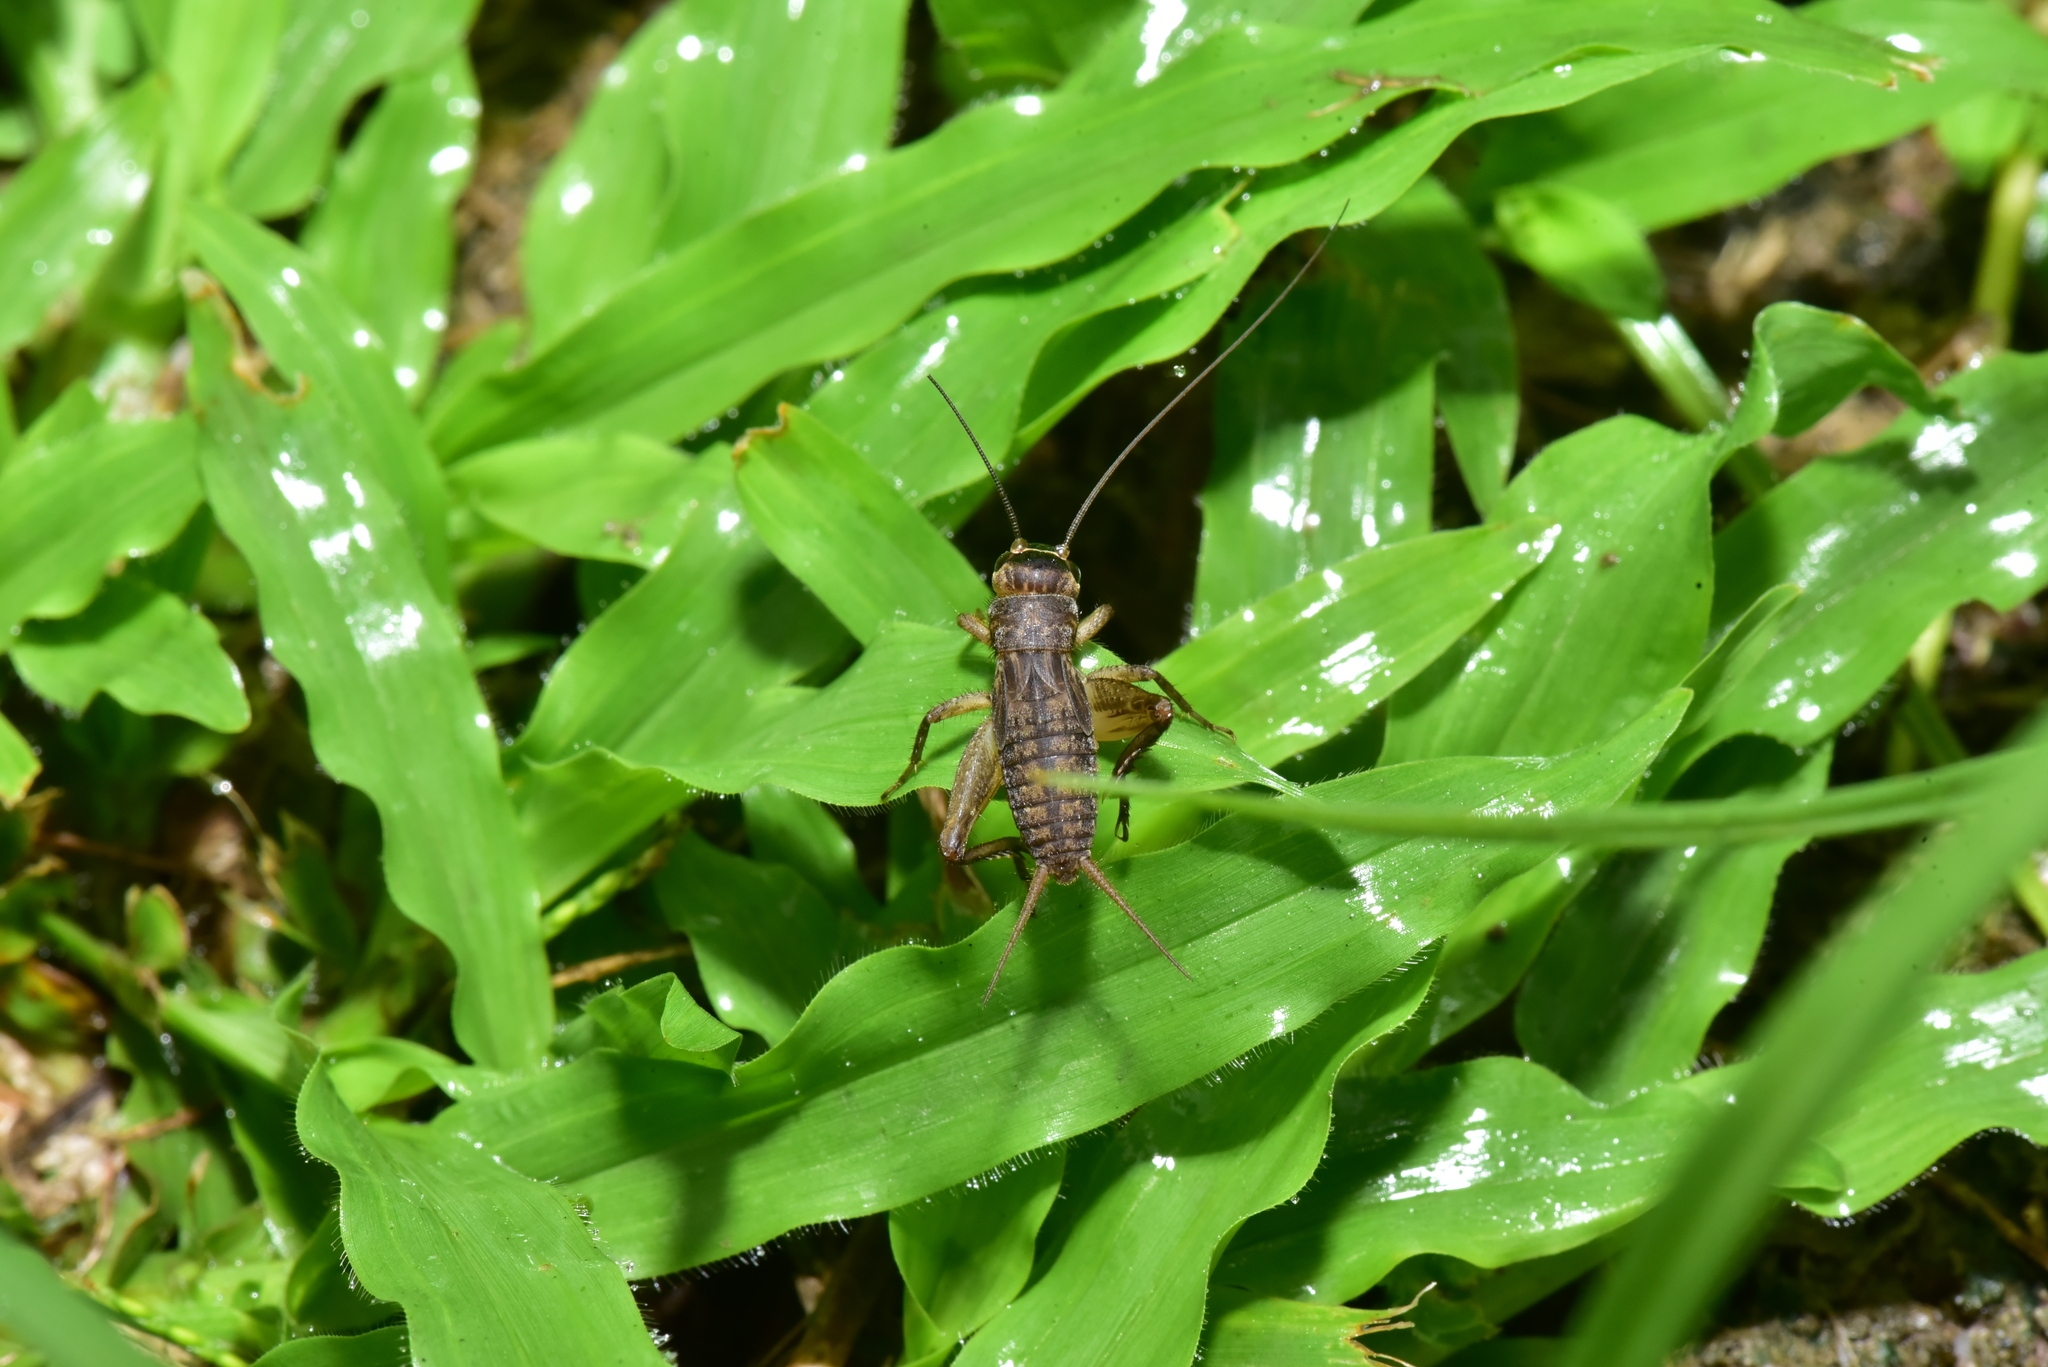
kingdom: Animalia
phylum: Arthropoda
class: Insecta
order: Orthoptera
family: Gryllidae
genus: Velarifictorus
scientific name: Velarifictorus aspersus
